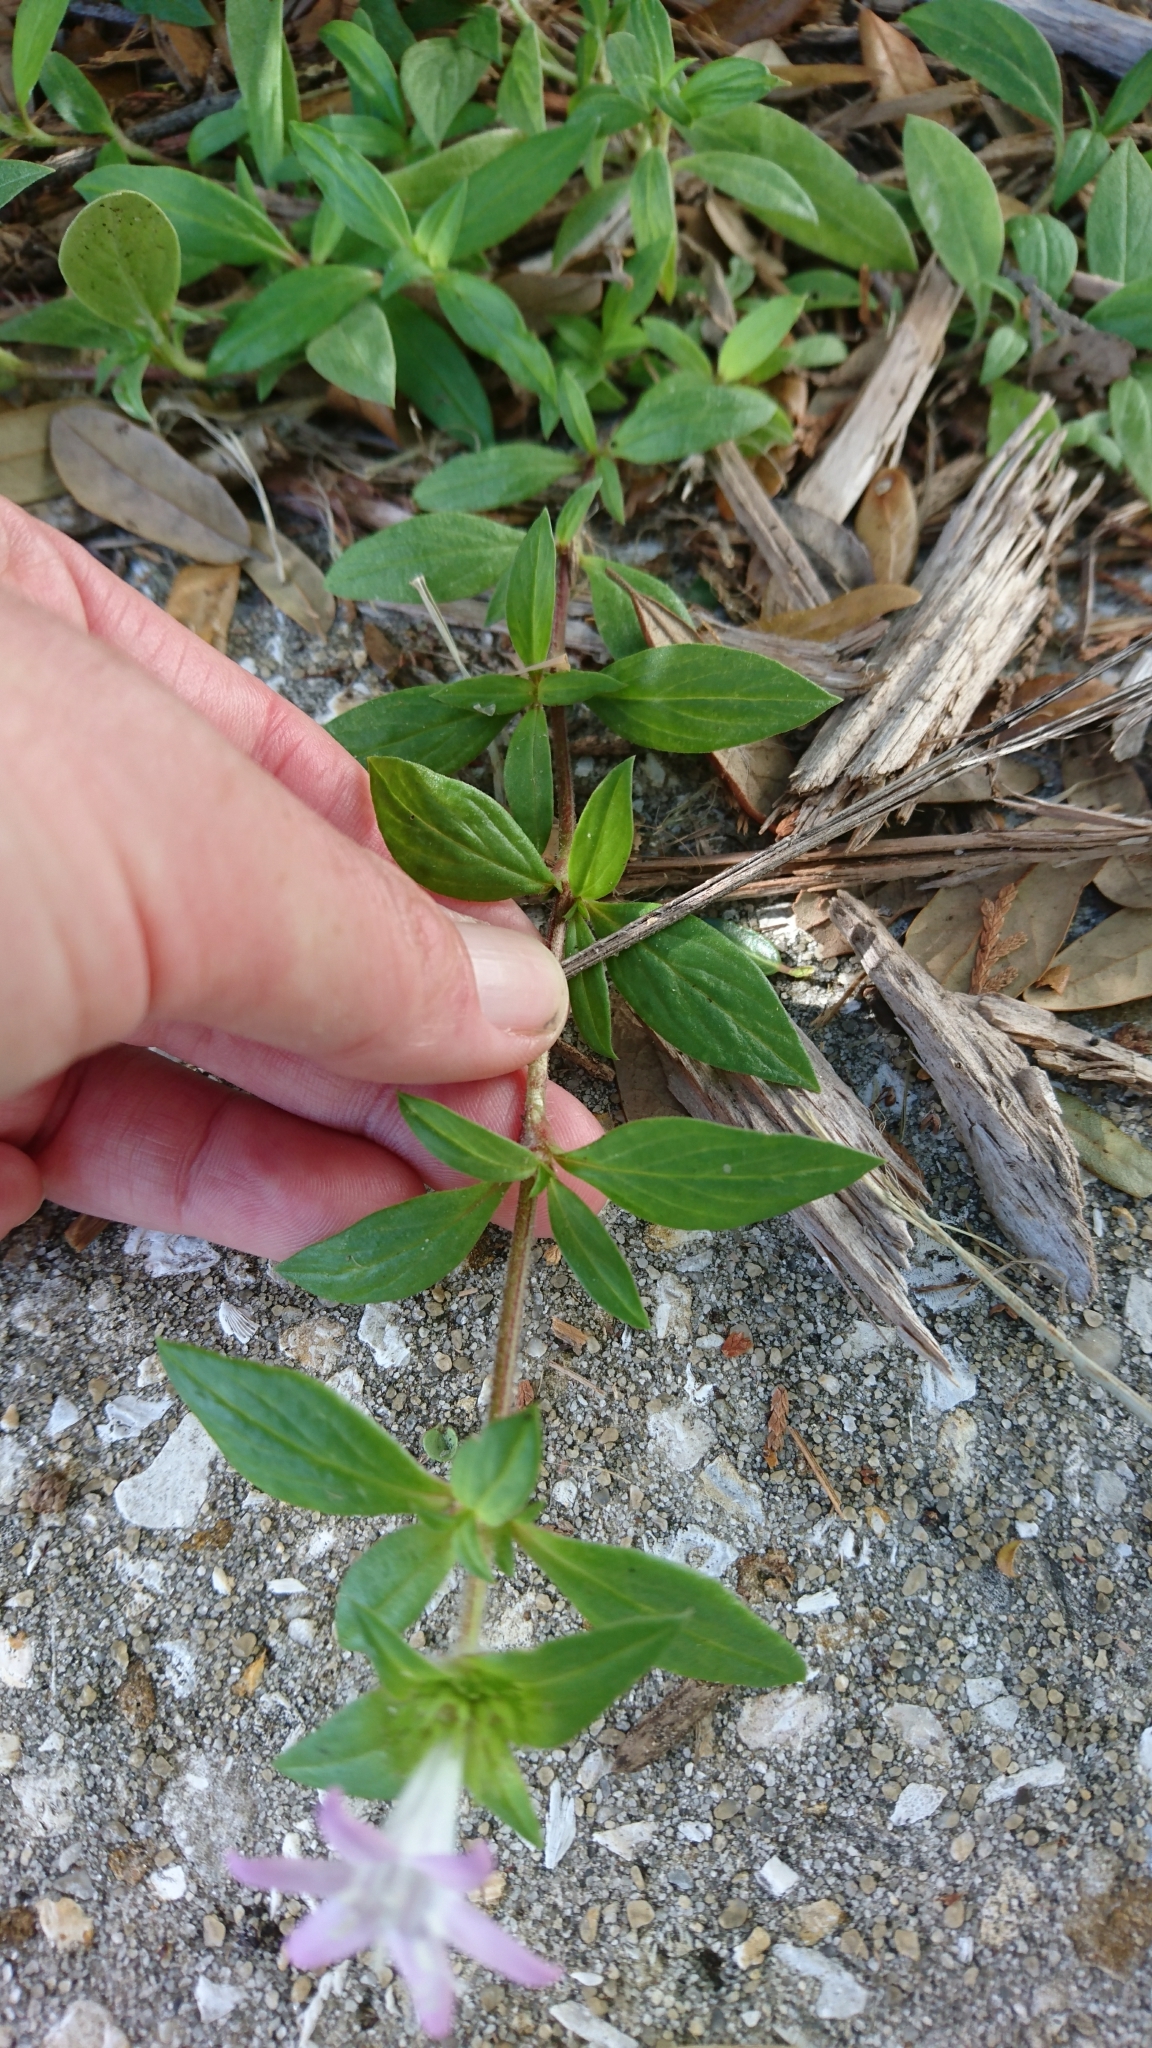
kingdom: Plantae
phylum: Tracheophyta
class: Magnoliopsida
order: Gentianales
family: Rubiaceae
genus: Richardia
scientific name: Richardia grandiflora
